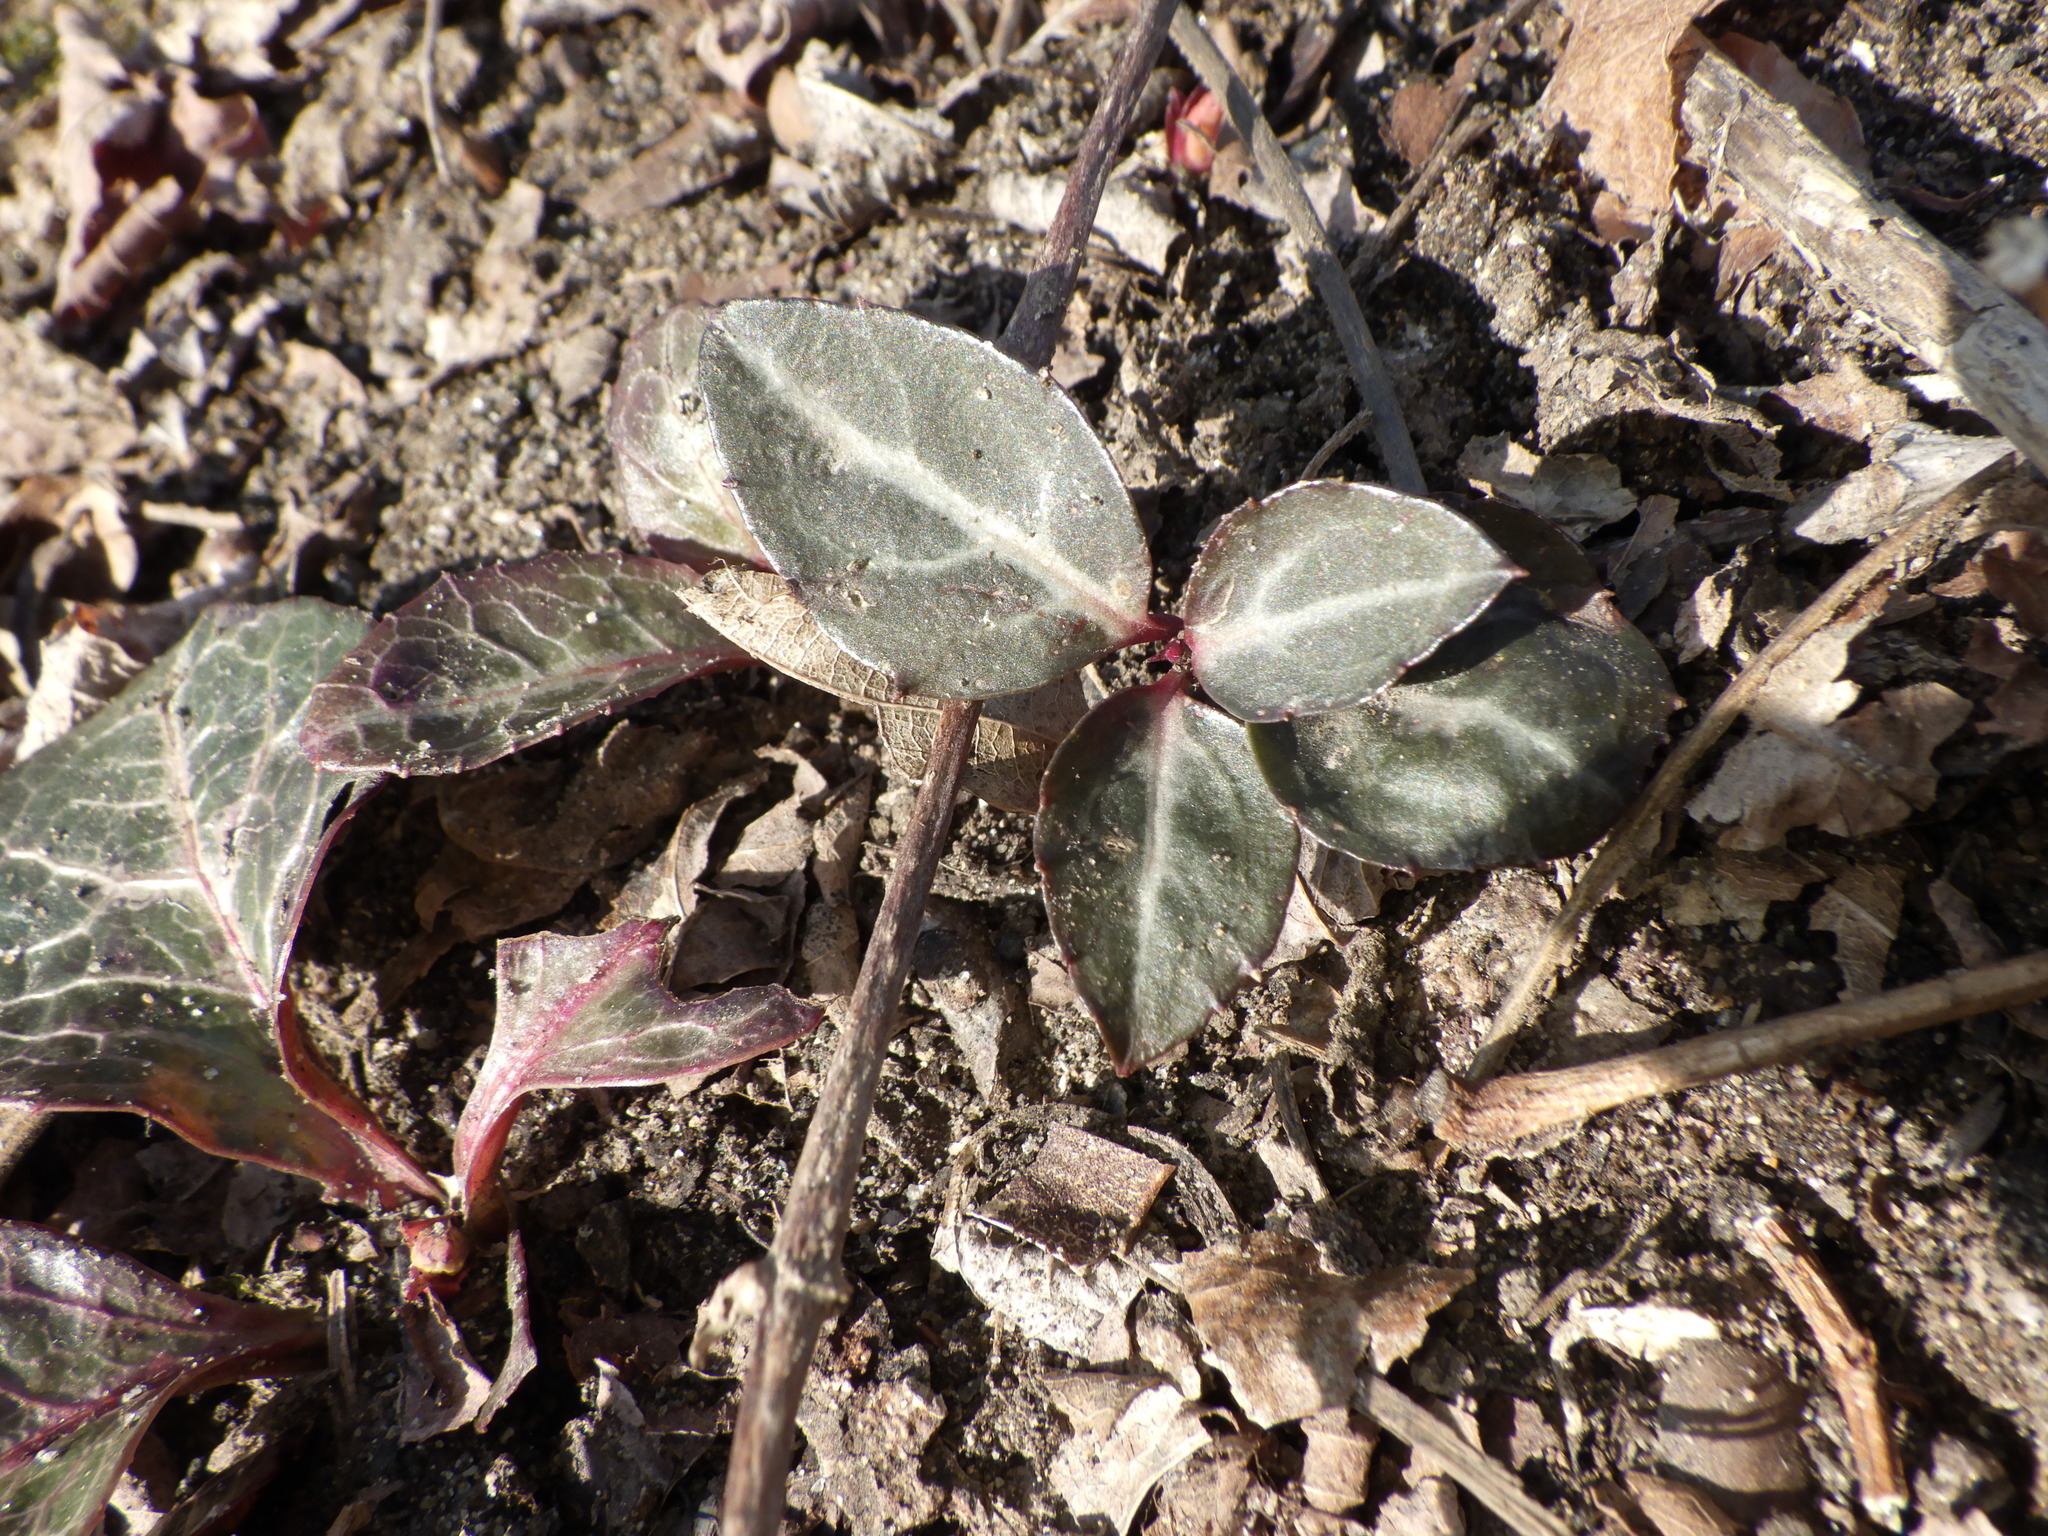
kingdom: Plantae
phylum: Tracheophyta
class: Magnoliopsida
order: Ericales
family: Ericaceae
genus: Pyrola
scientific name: Pyrola americana
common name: American wintergreen
